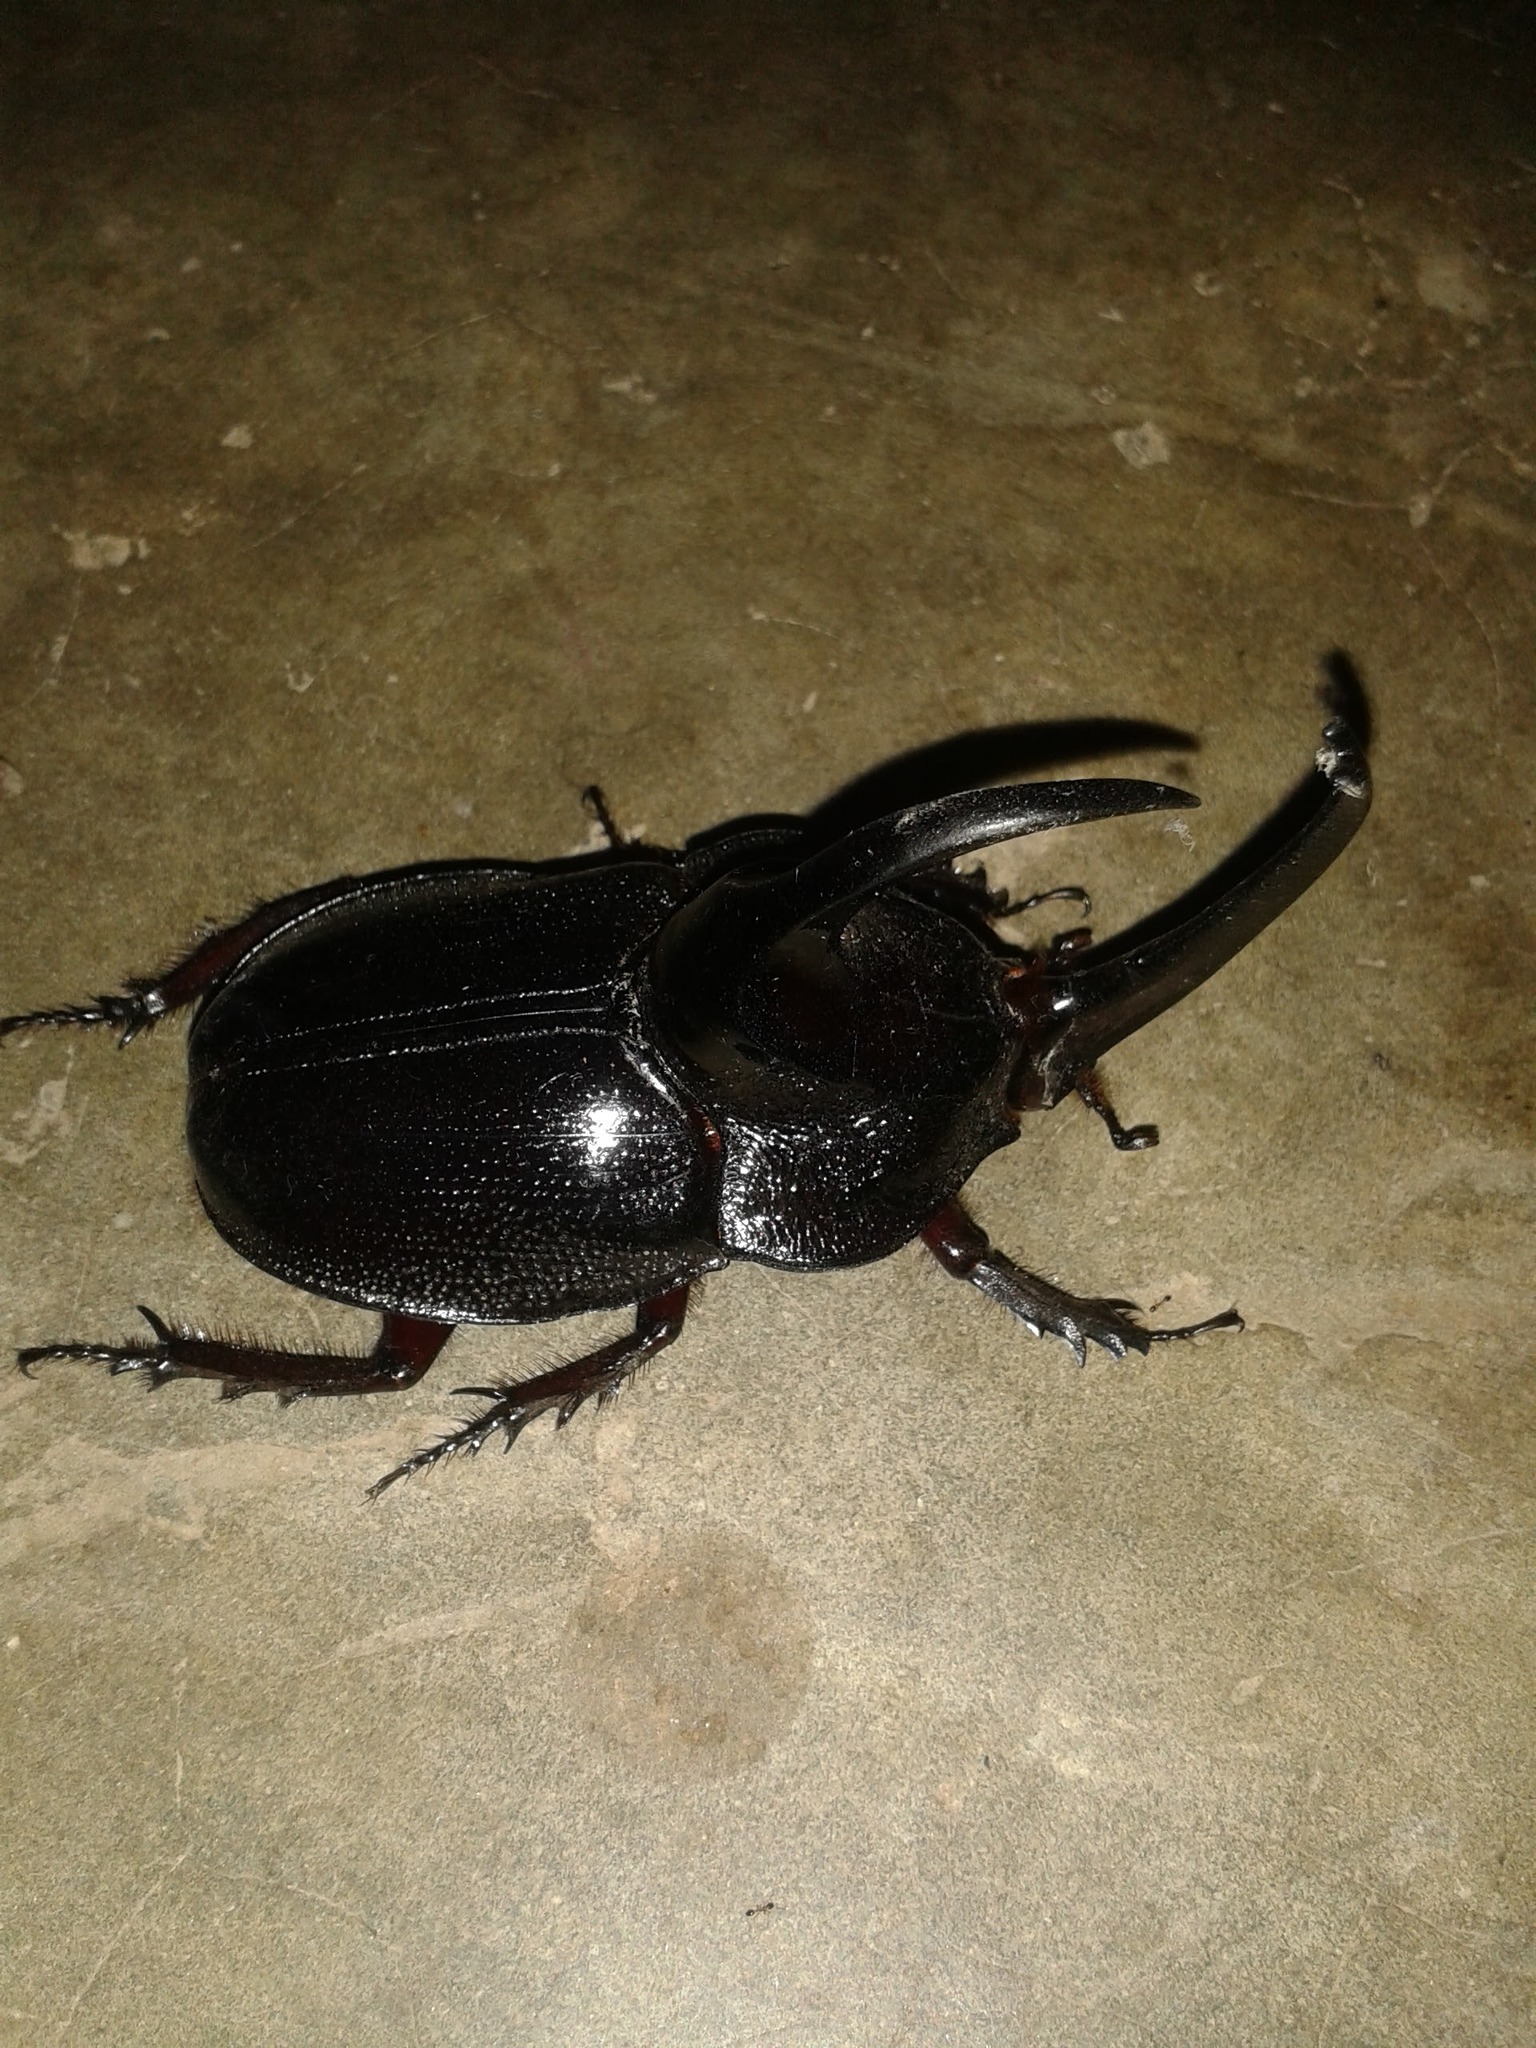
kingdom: Animalia
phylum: Arthropoda
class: Insecta
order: Coleoptera
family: Scarabaeidae
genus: Enema
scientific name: Enema pan
